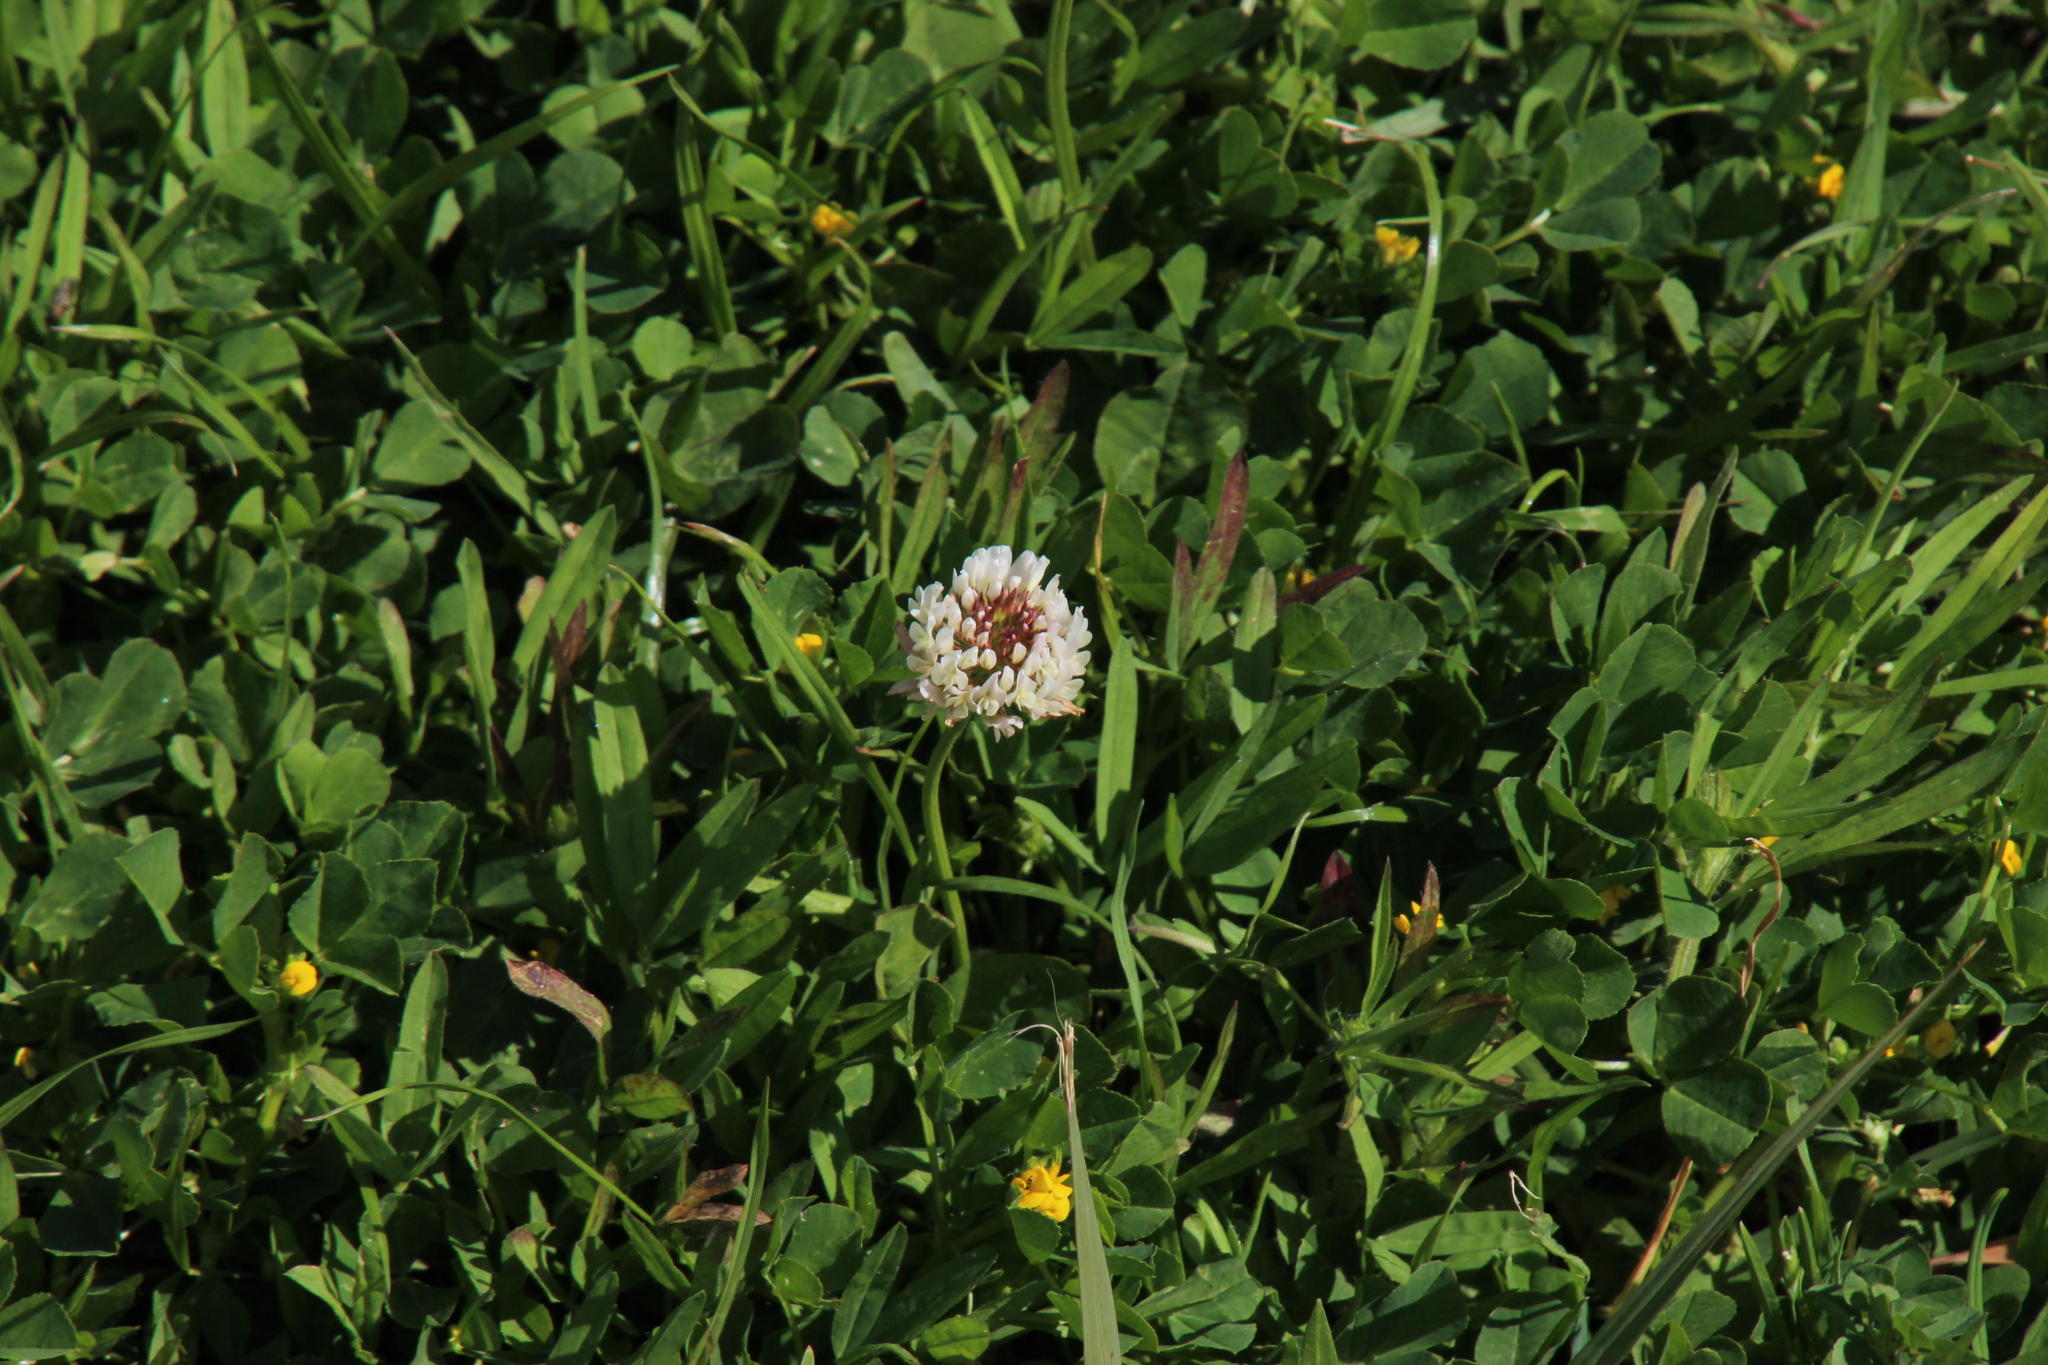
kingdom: Plantae
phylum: Tracheophyta
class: Magnoliopsida
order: Fabales
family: Fabaceae
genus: Trifolium
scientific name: Trifolium repens
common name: White clover
